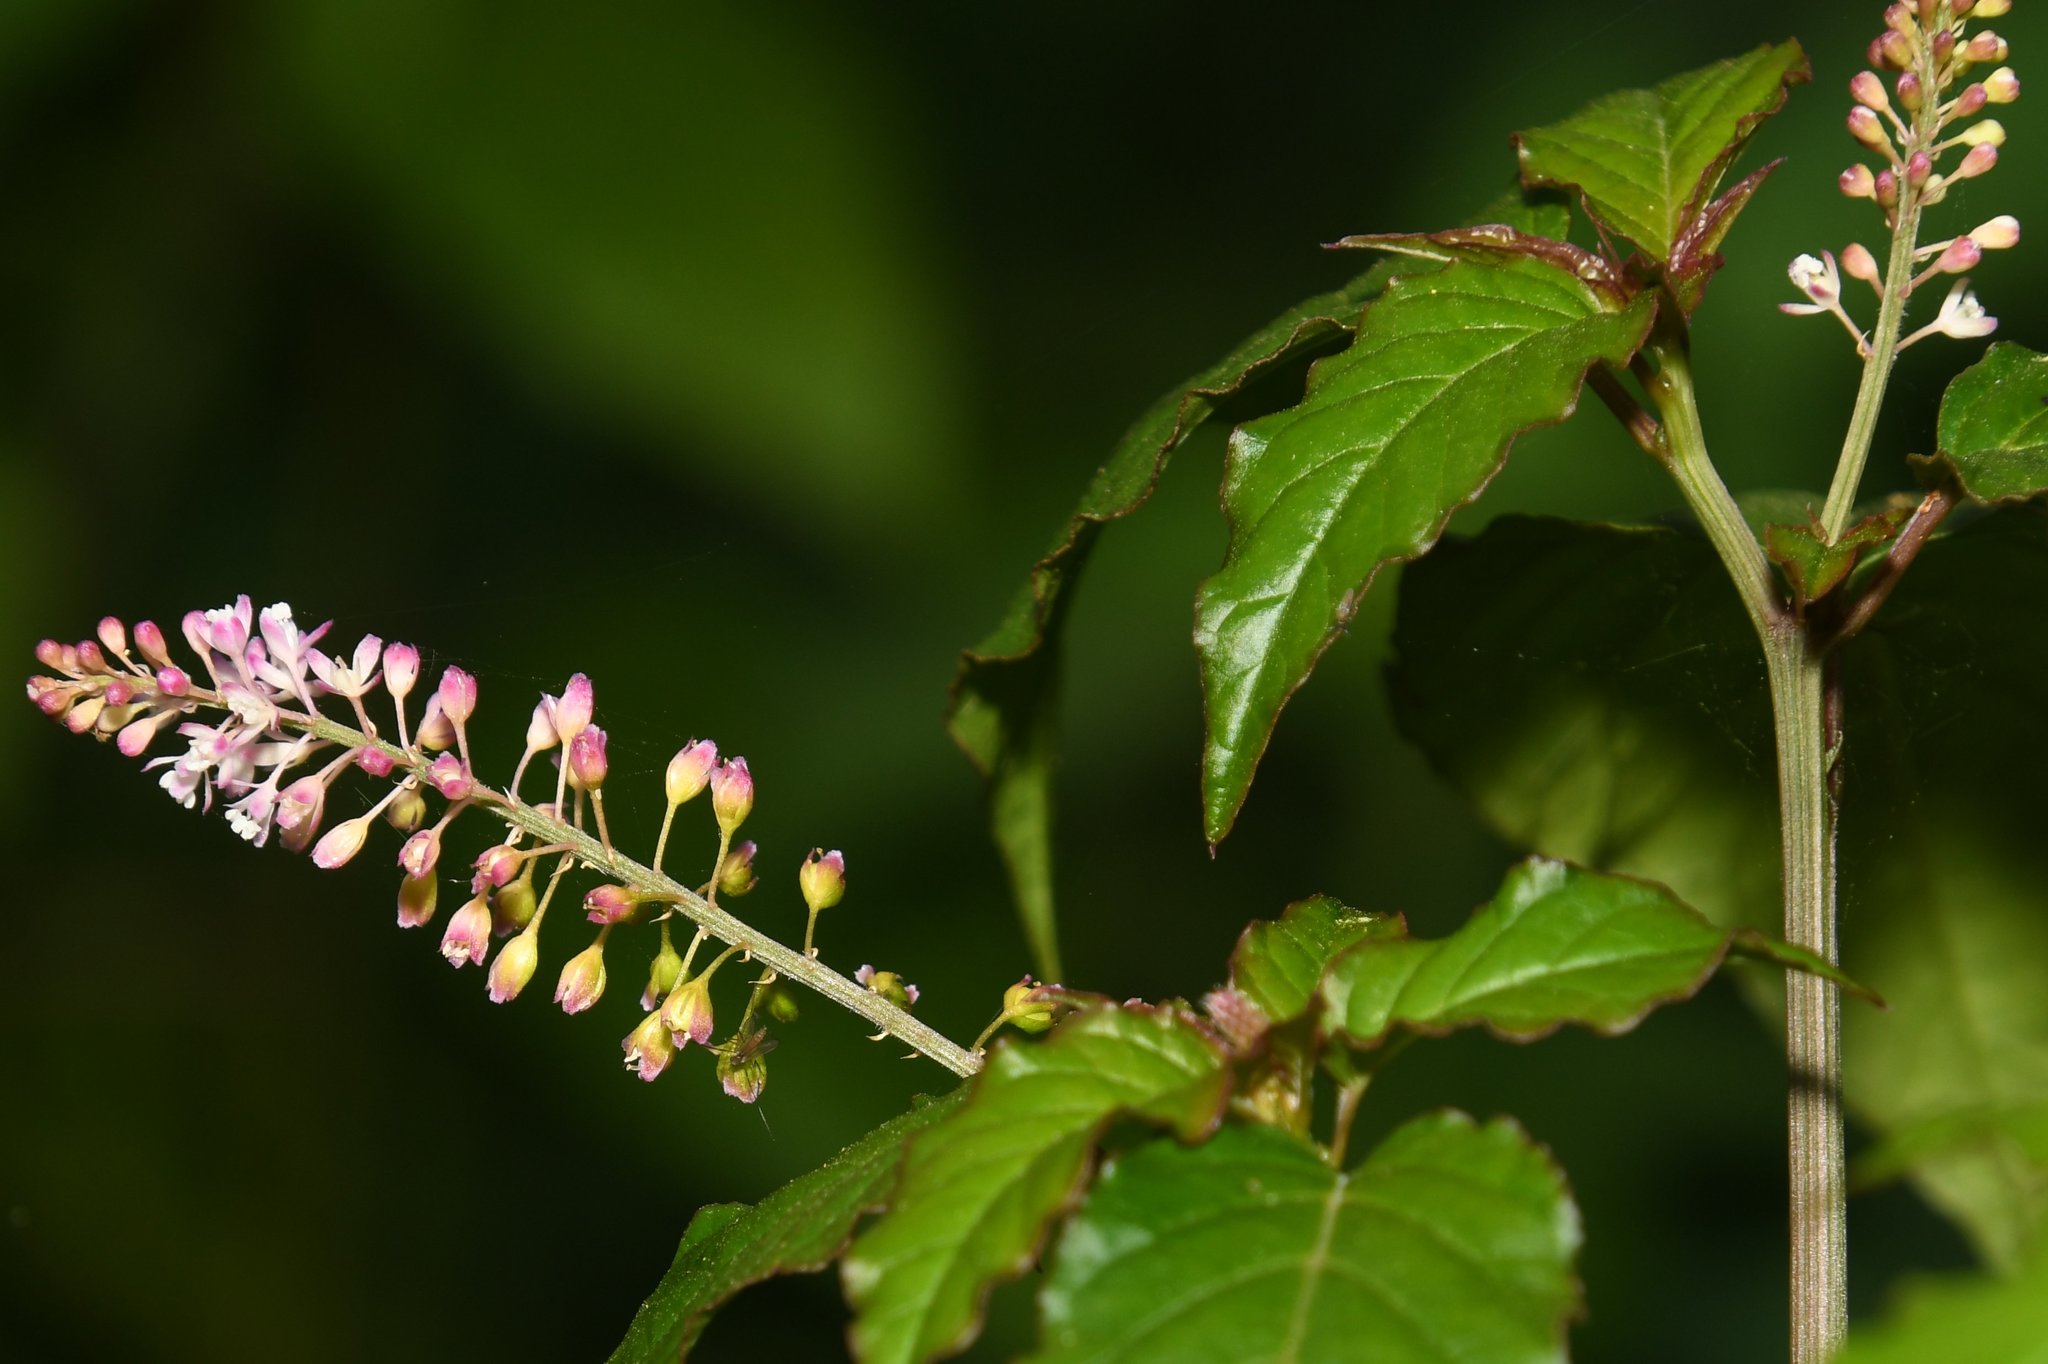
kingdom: Plantae
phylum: Tracheophyta
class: Magnoliopsida
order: Caryophyllales
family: Phytolaccaceae
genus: Rivina
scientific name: Rivina humilis
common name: Rougeplant
